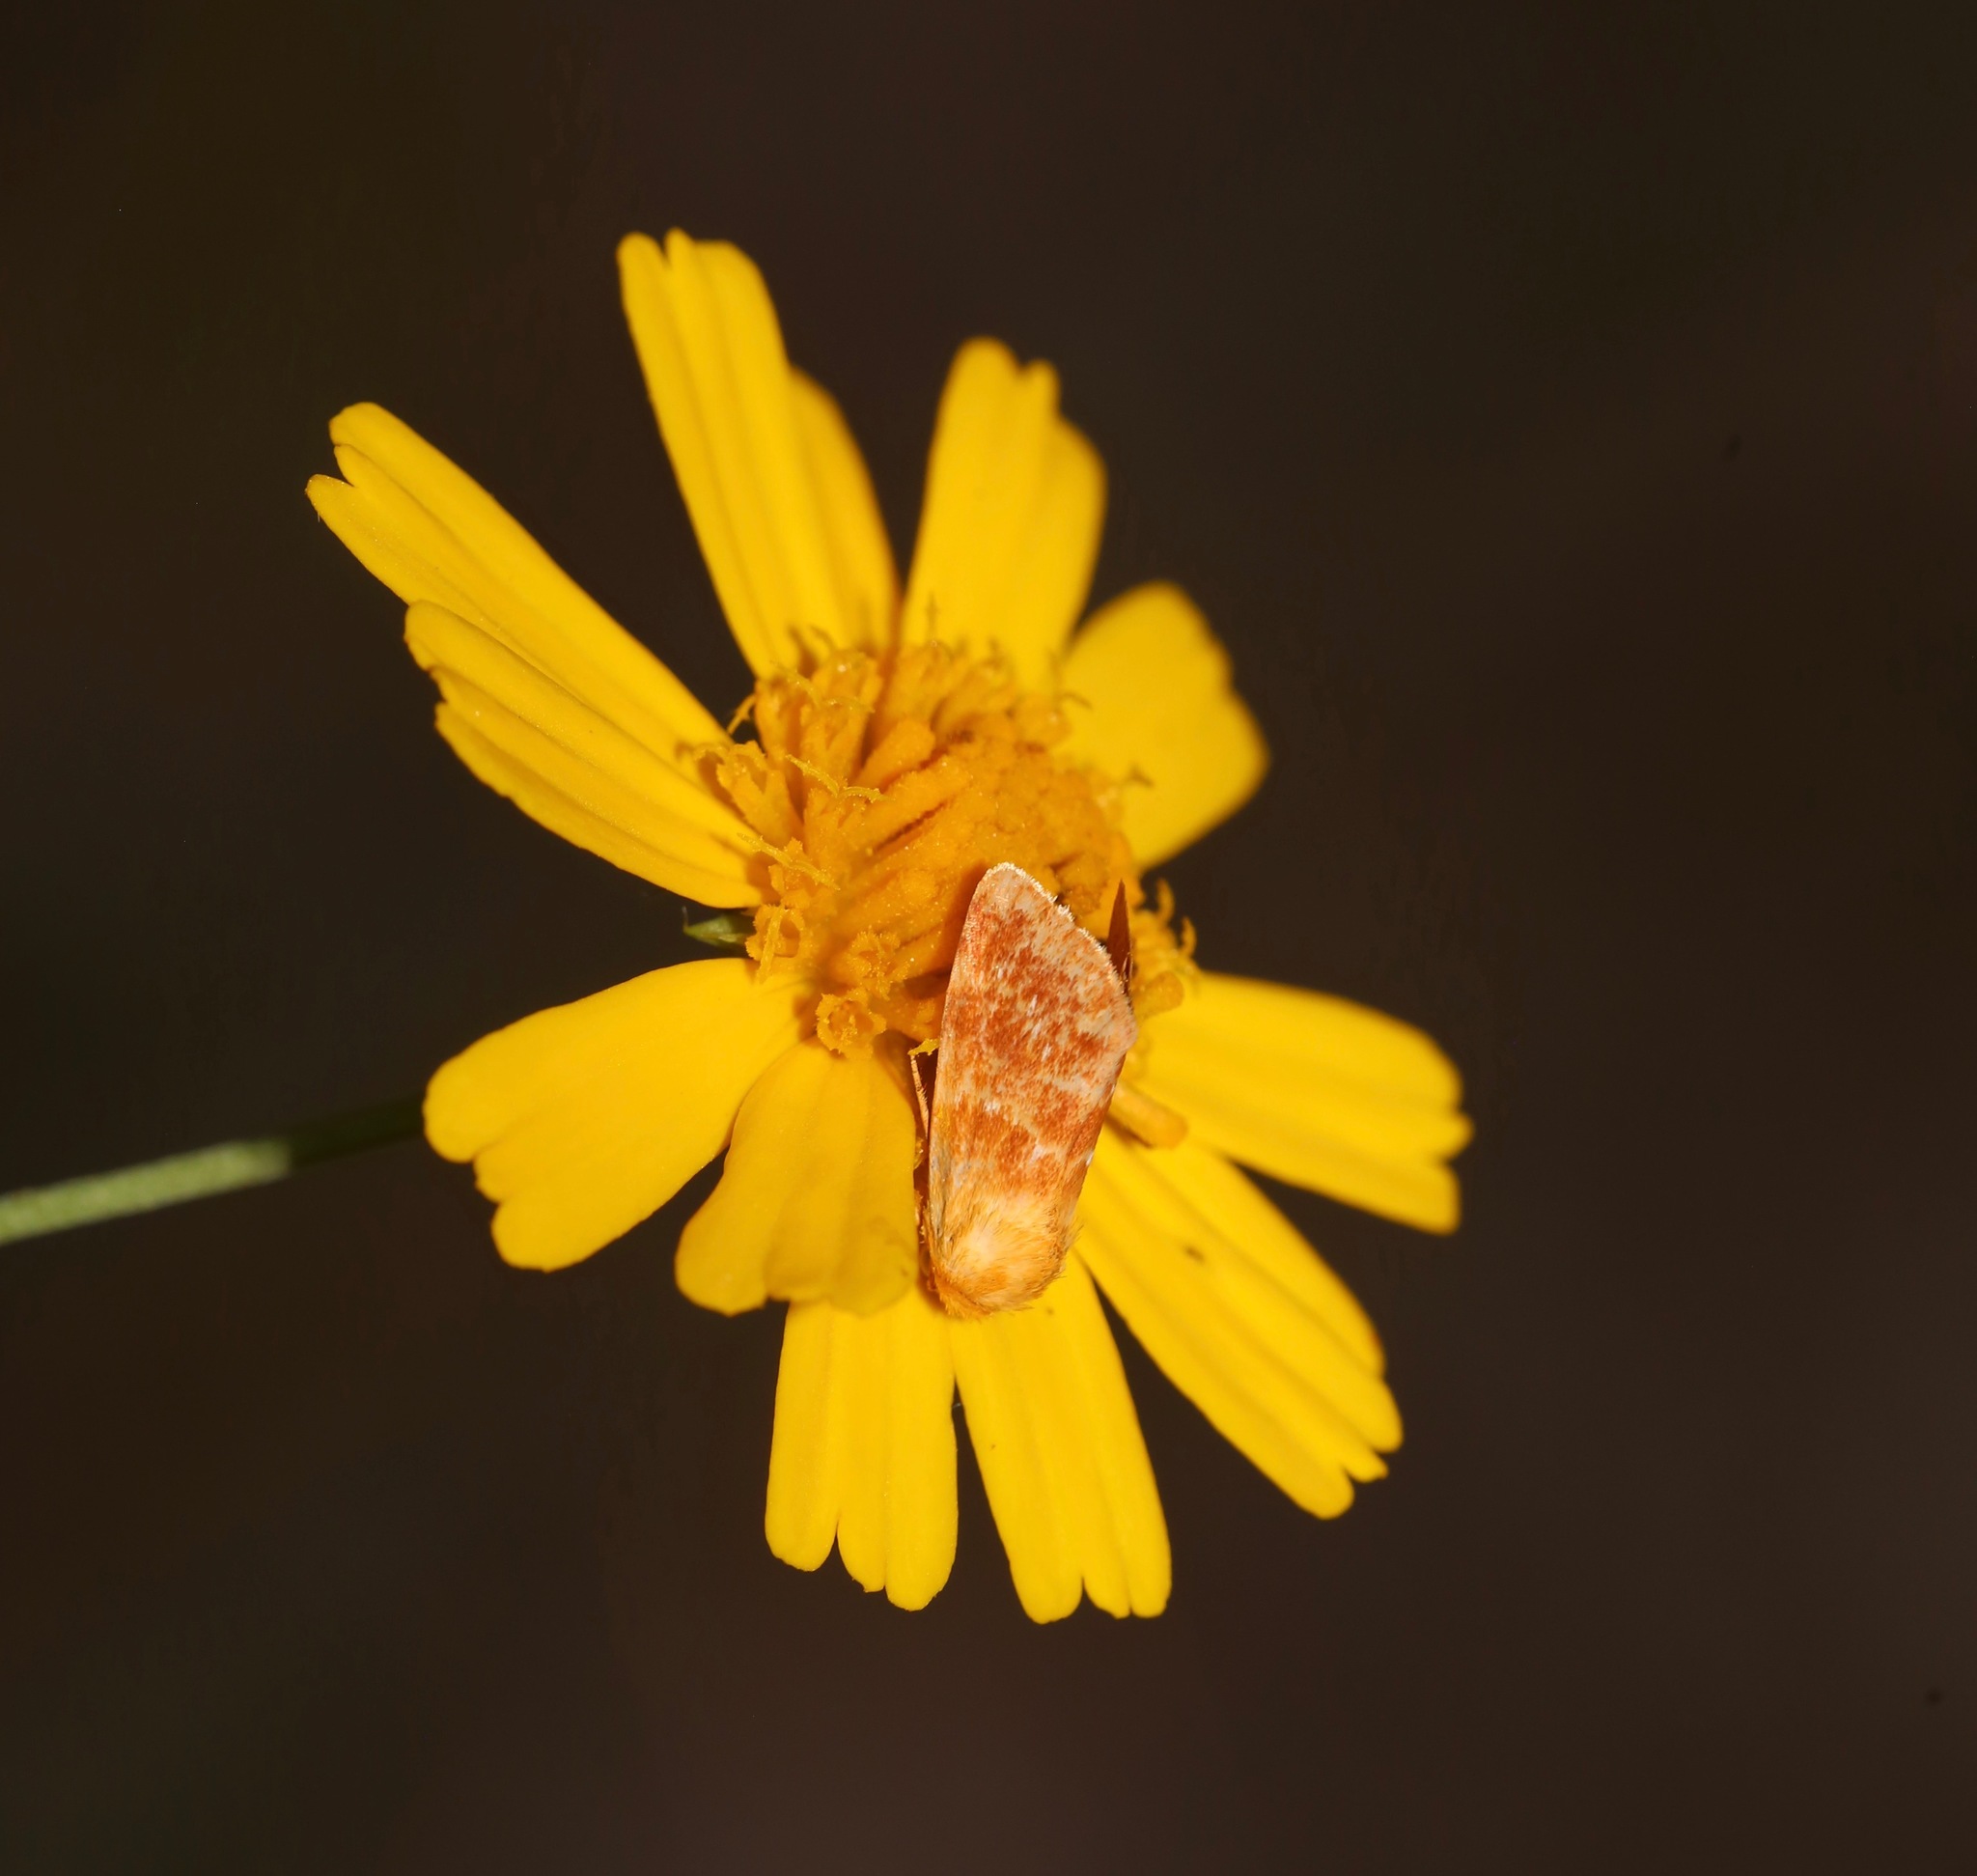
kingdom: Animalia
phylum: Arthropoda
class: Insecta
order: Lepidoptera
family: Noctuidae
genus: Schinia
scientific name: Schinia fulleri
